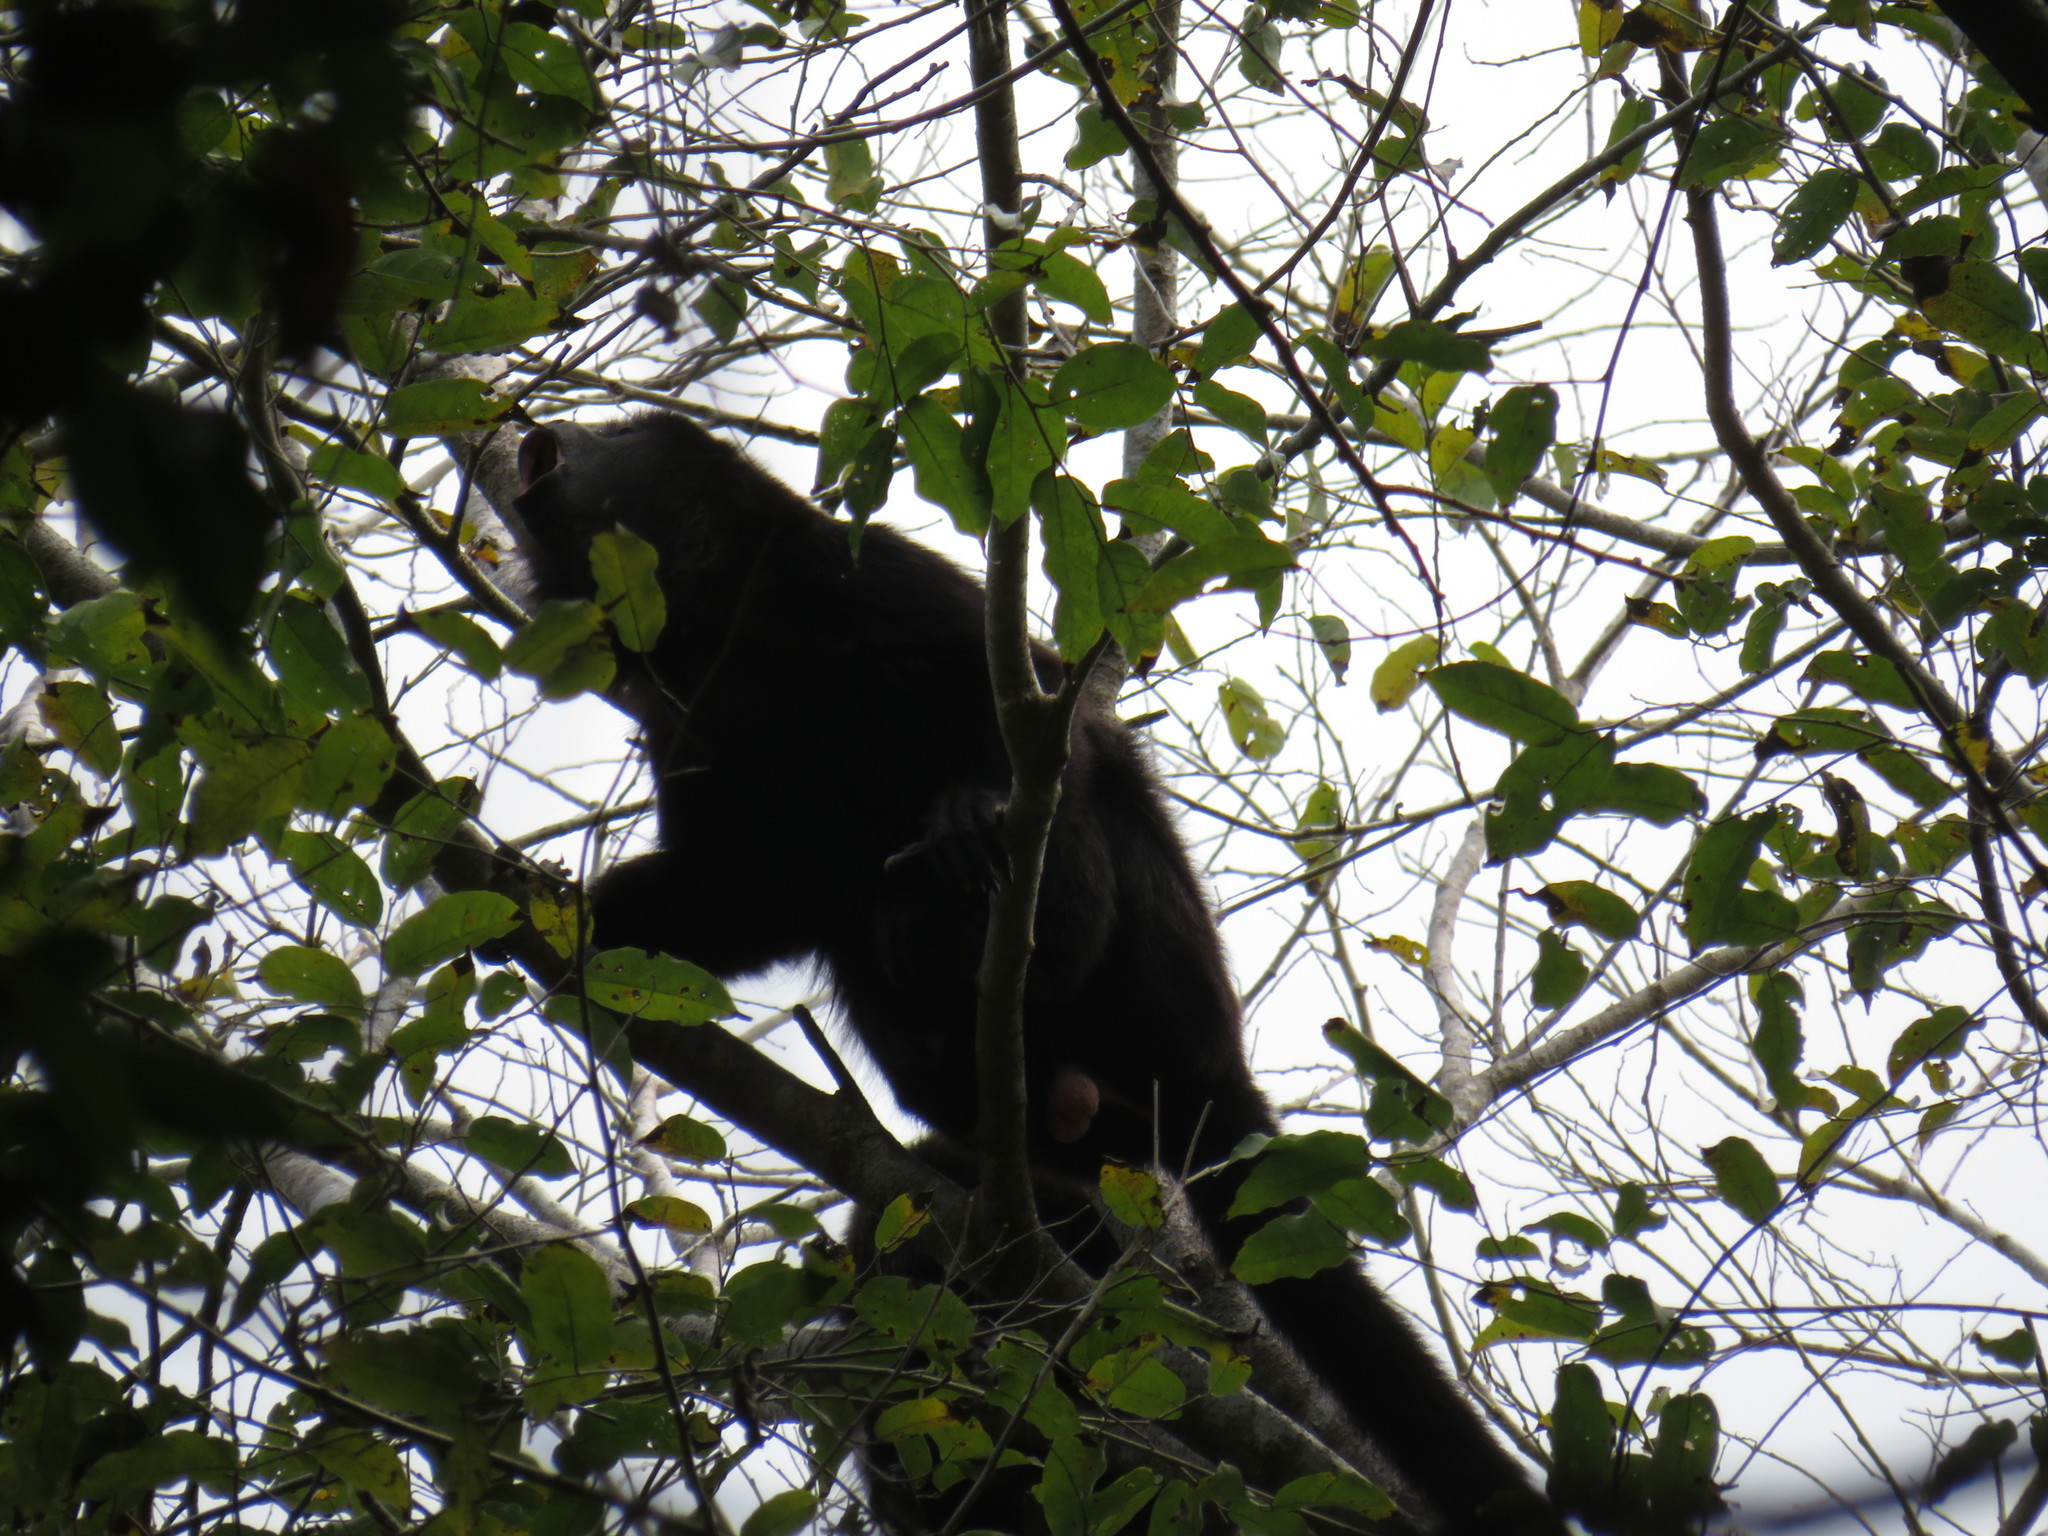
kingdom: Animalia
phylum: Chordata
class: Mammalia
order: Primates
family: Atelidae
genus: Alouatta
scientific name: Alouatta pigra
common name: Guatemalan black howler
